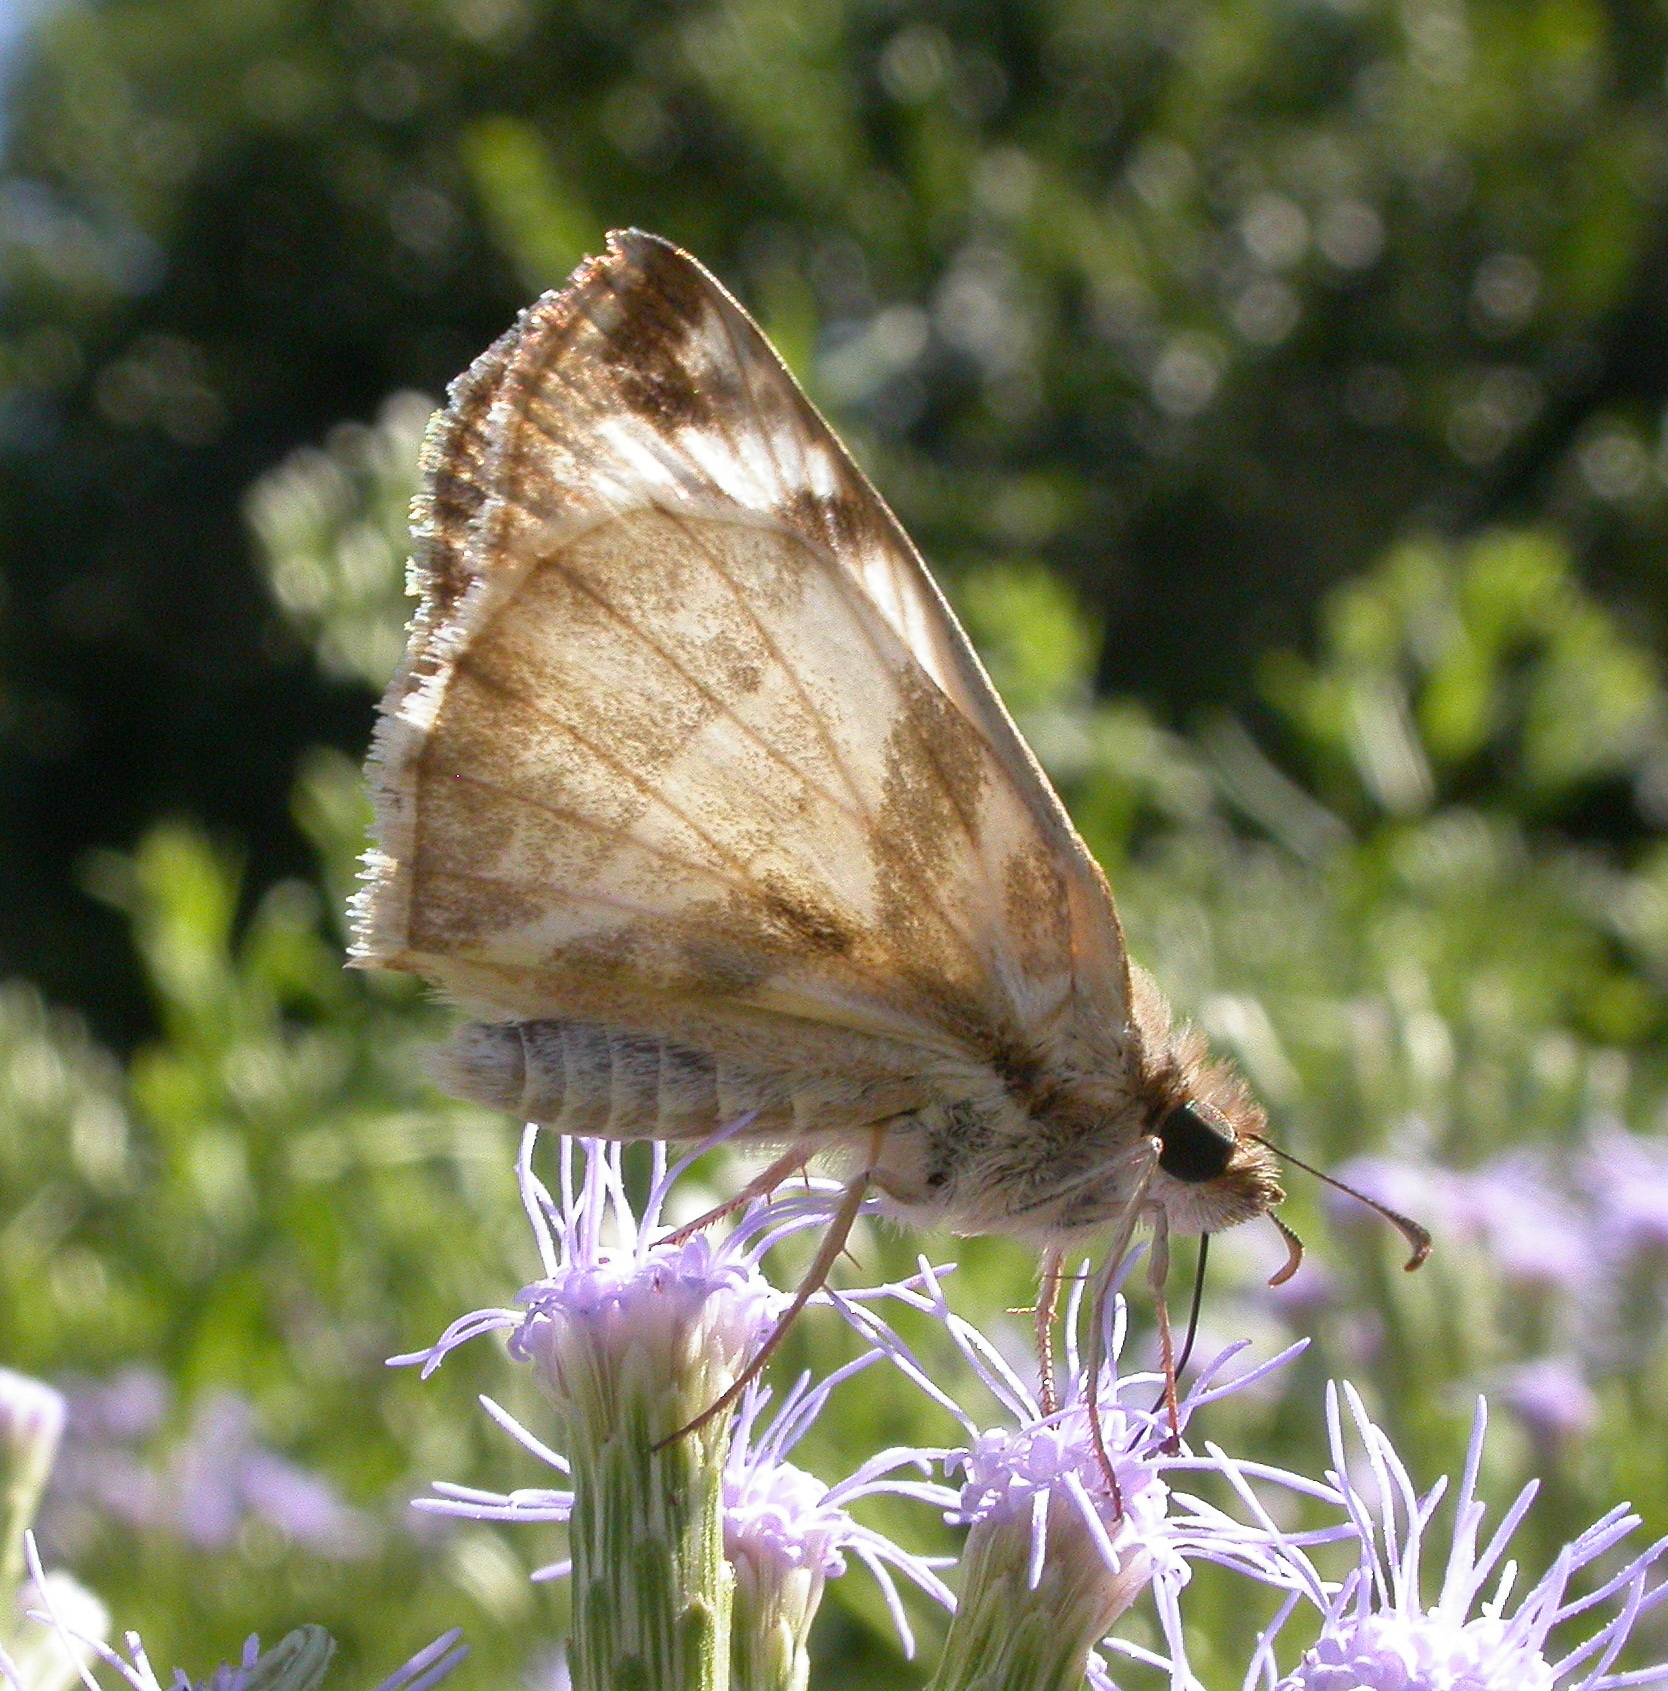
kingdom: Animalia
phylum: Arthropoda
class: Insecta
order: Lepidoptera
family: Hesperiidae
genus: Heliopetes
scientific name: Heliopetes laviana
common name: Laviana white-skipper
